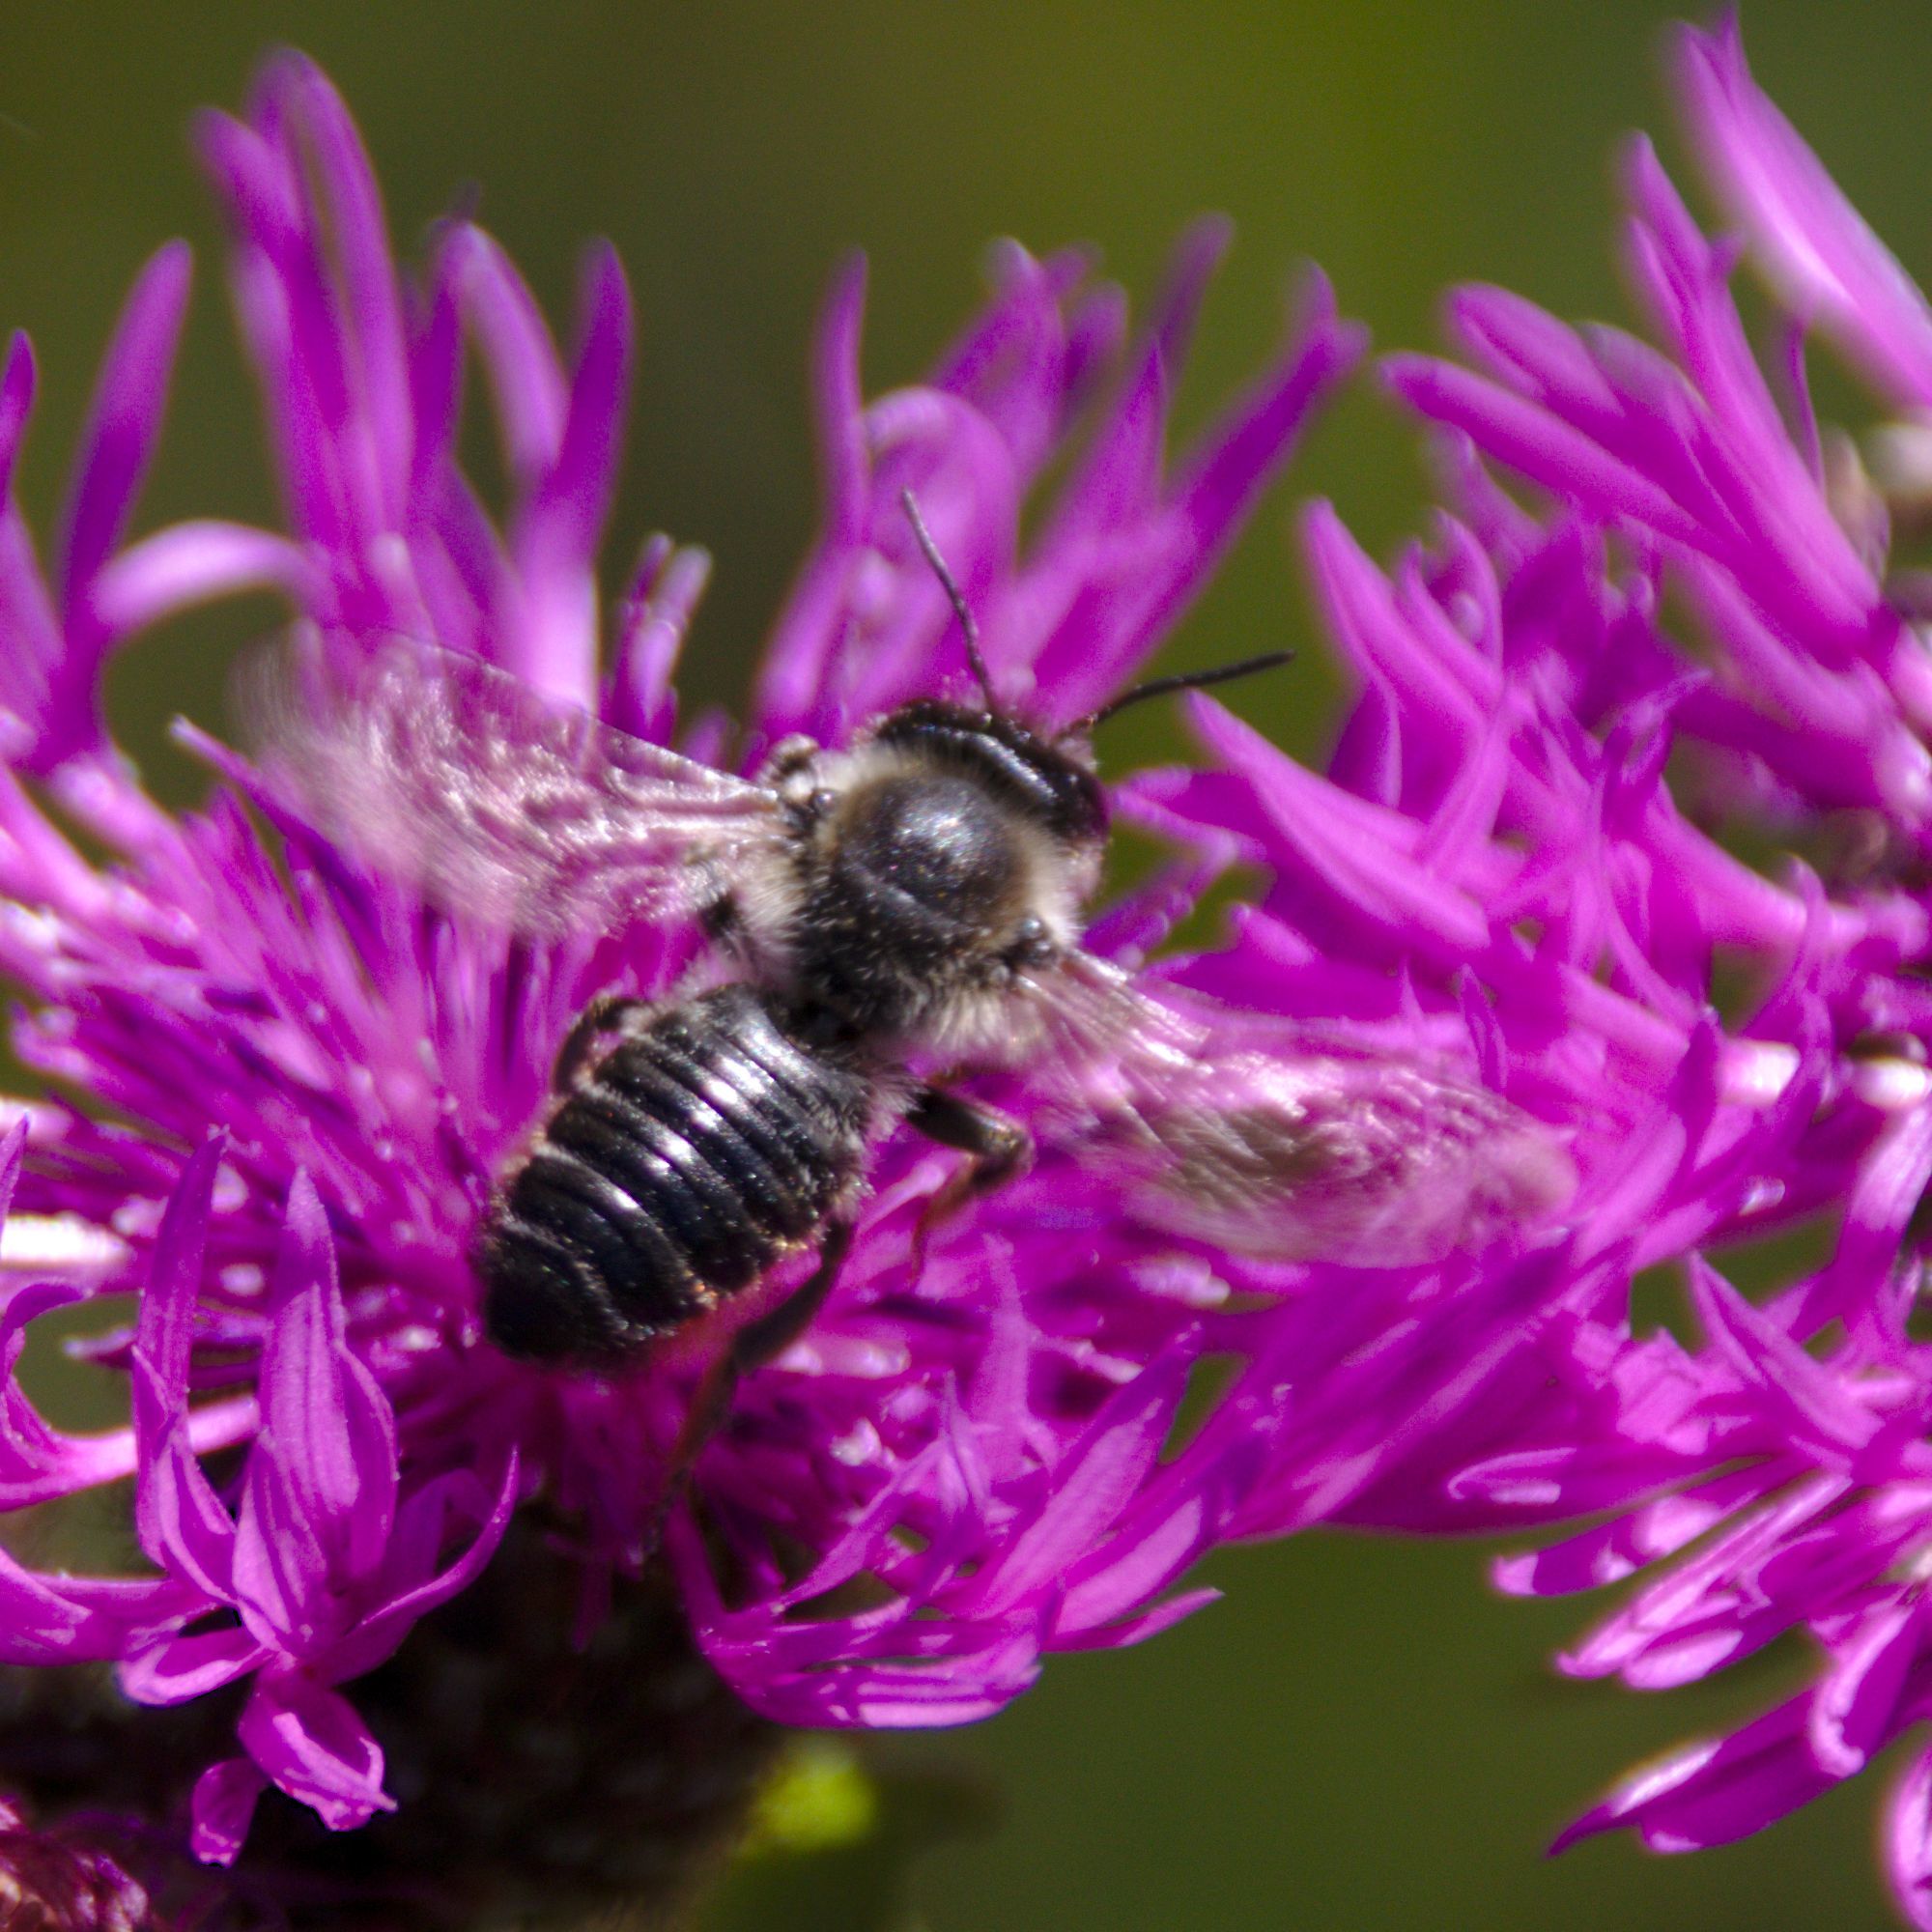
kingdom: Animalia
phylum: Arthropoda
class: Insecta
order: Hymenoptera
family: Megachilidae
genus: Megachile
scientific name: Megachile
